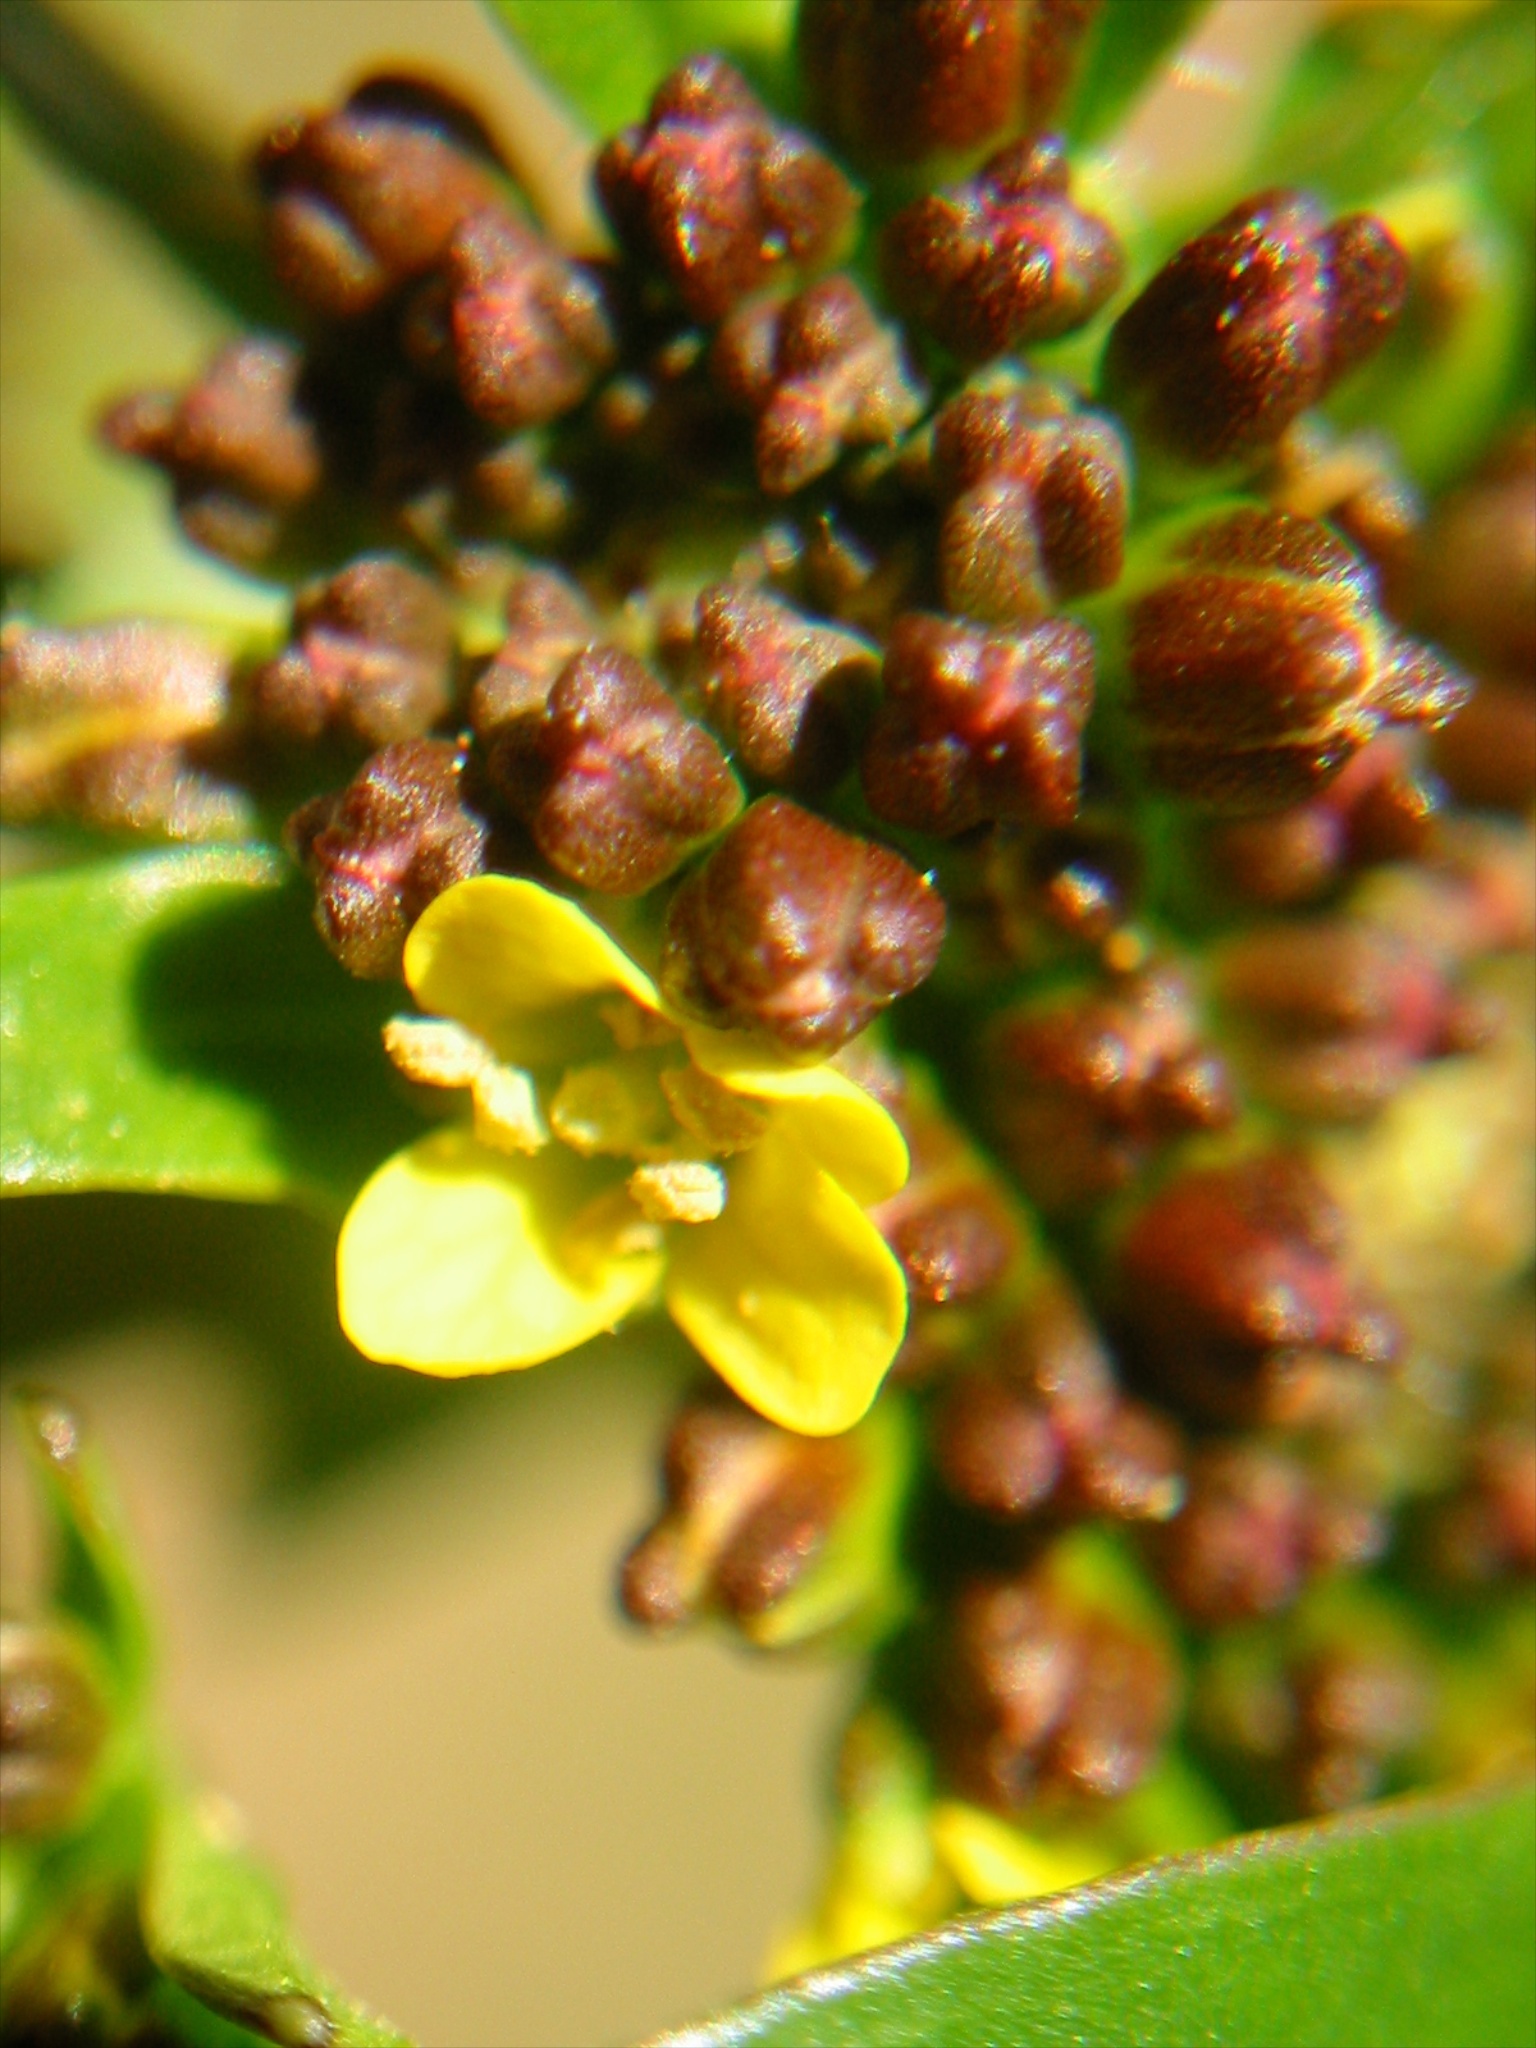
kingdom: Plantae
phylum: Tracheophyta
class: Magnoliopsida
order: Brassicales
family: Brassicaceae
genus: Barbarea
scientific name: Barbarea intermedia
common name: Medium-flowered winter-cress
